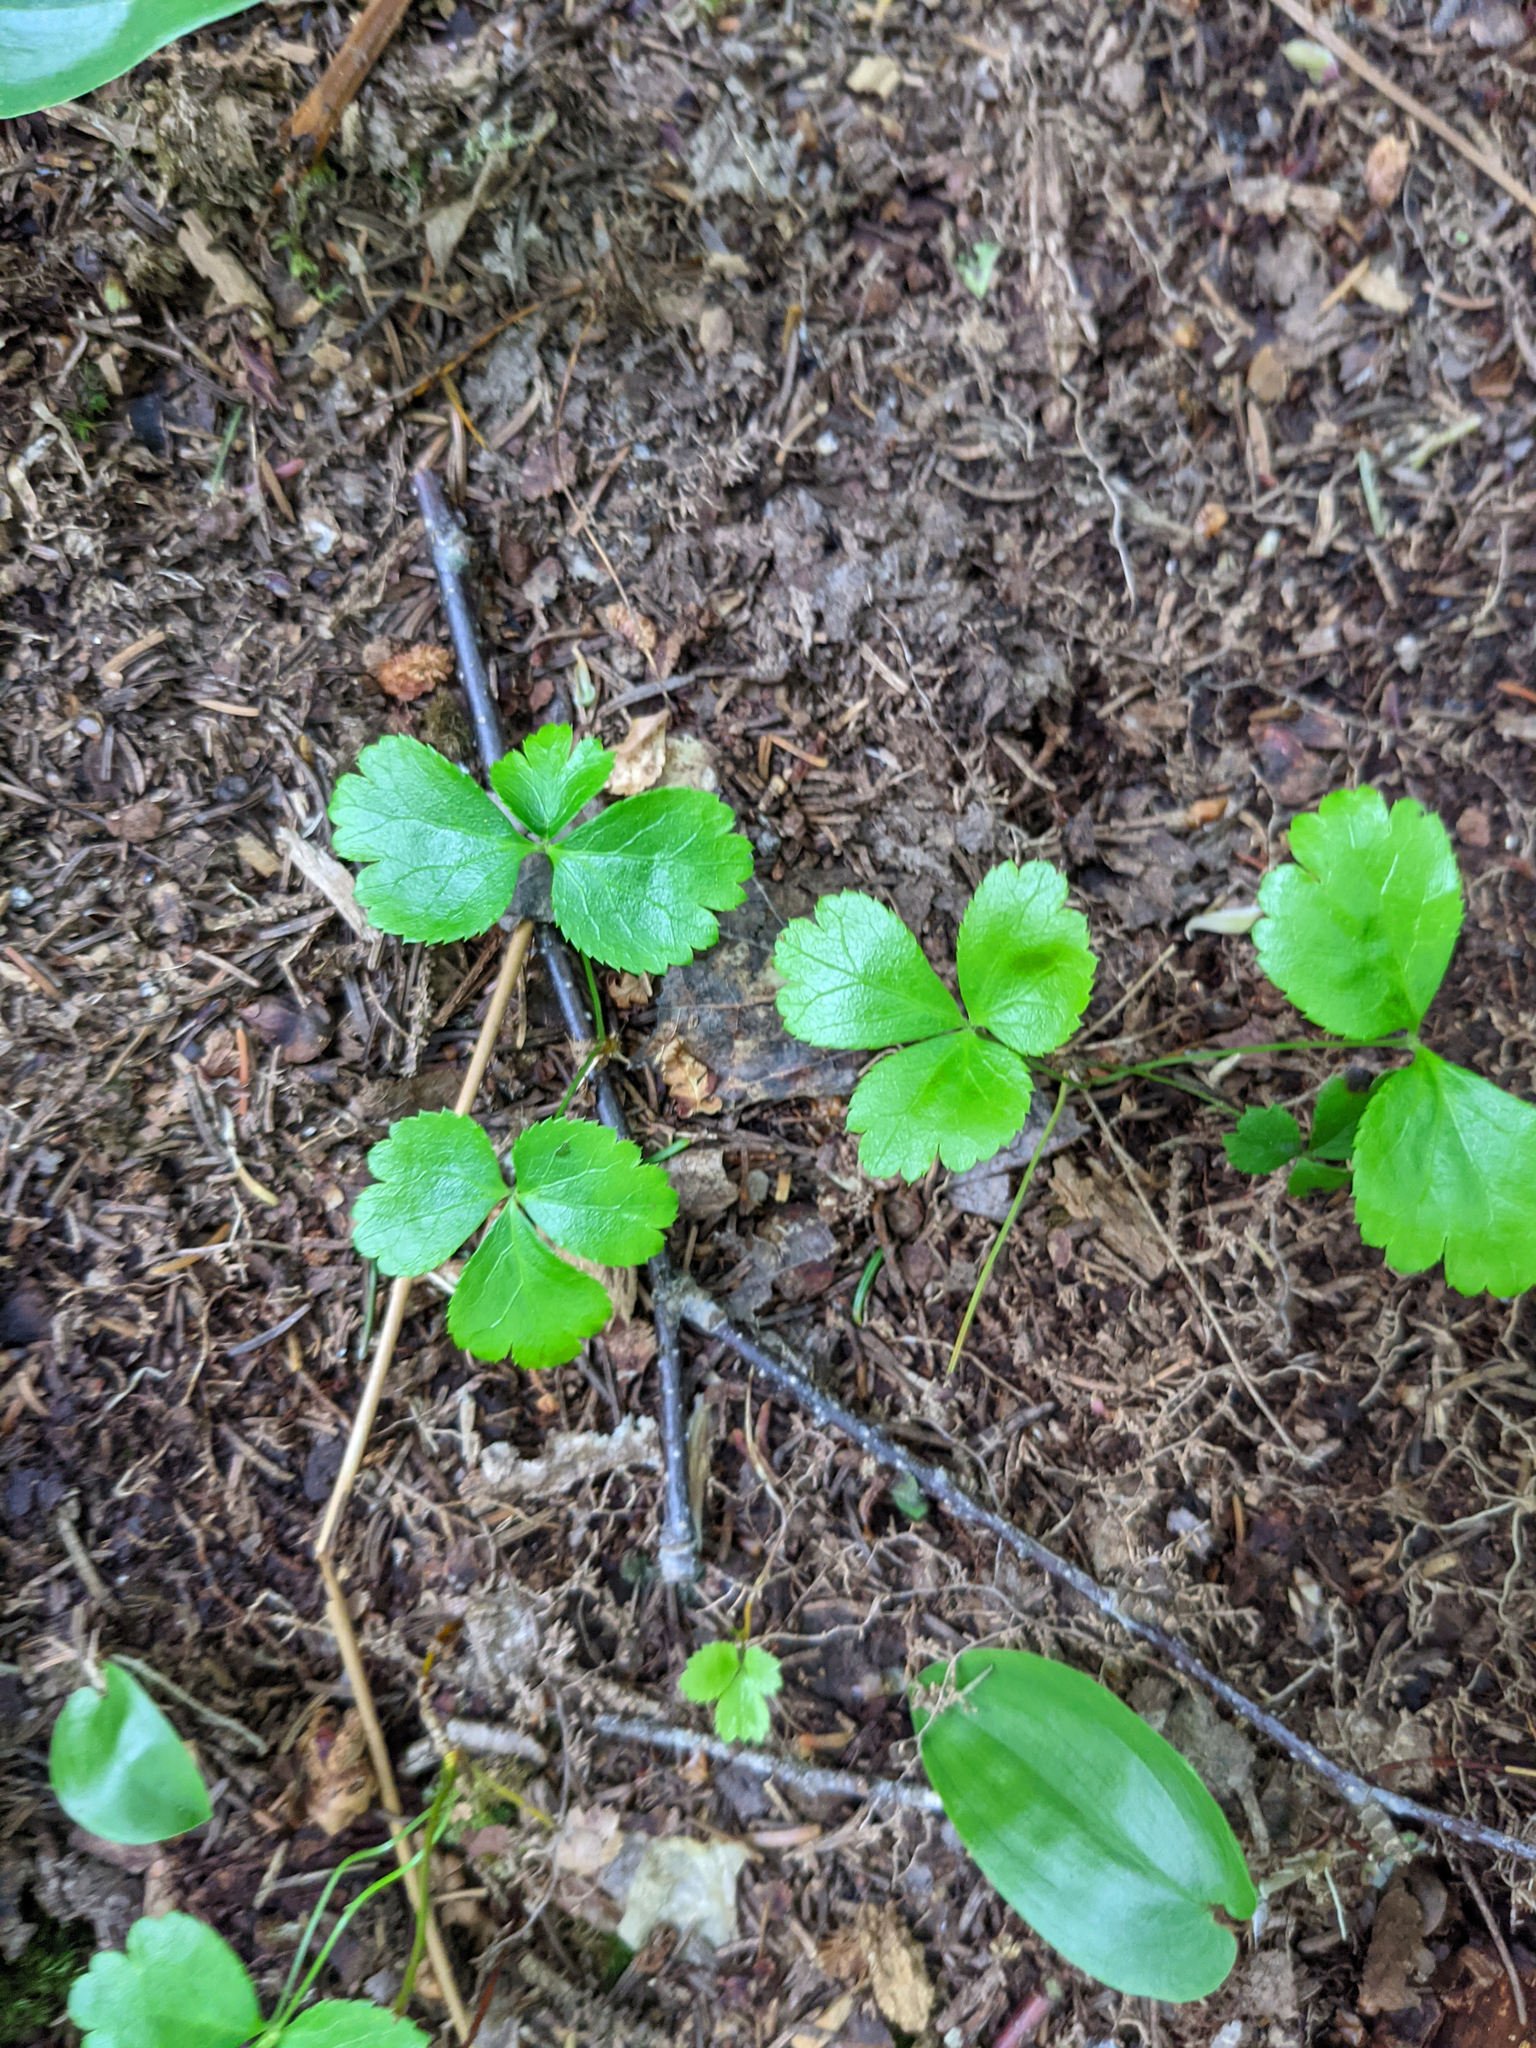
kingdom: Plantae
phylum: Tracheophyta
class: Magnoliopsida
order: Ranunculales
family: Ranunculaceae
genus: Coptis
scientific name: Coptis trifolia
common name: Canker-root
